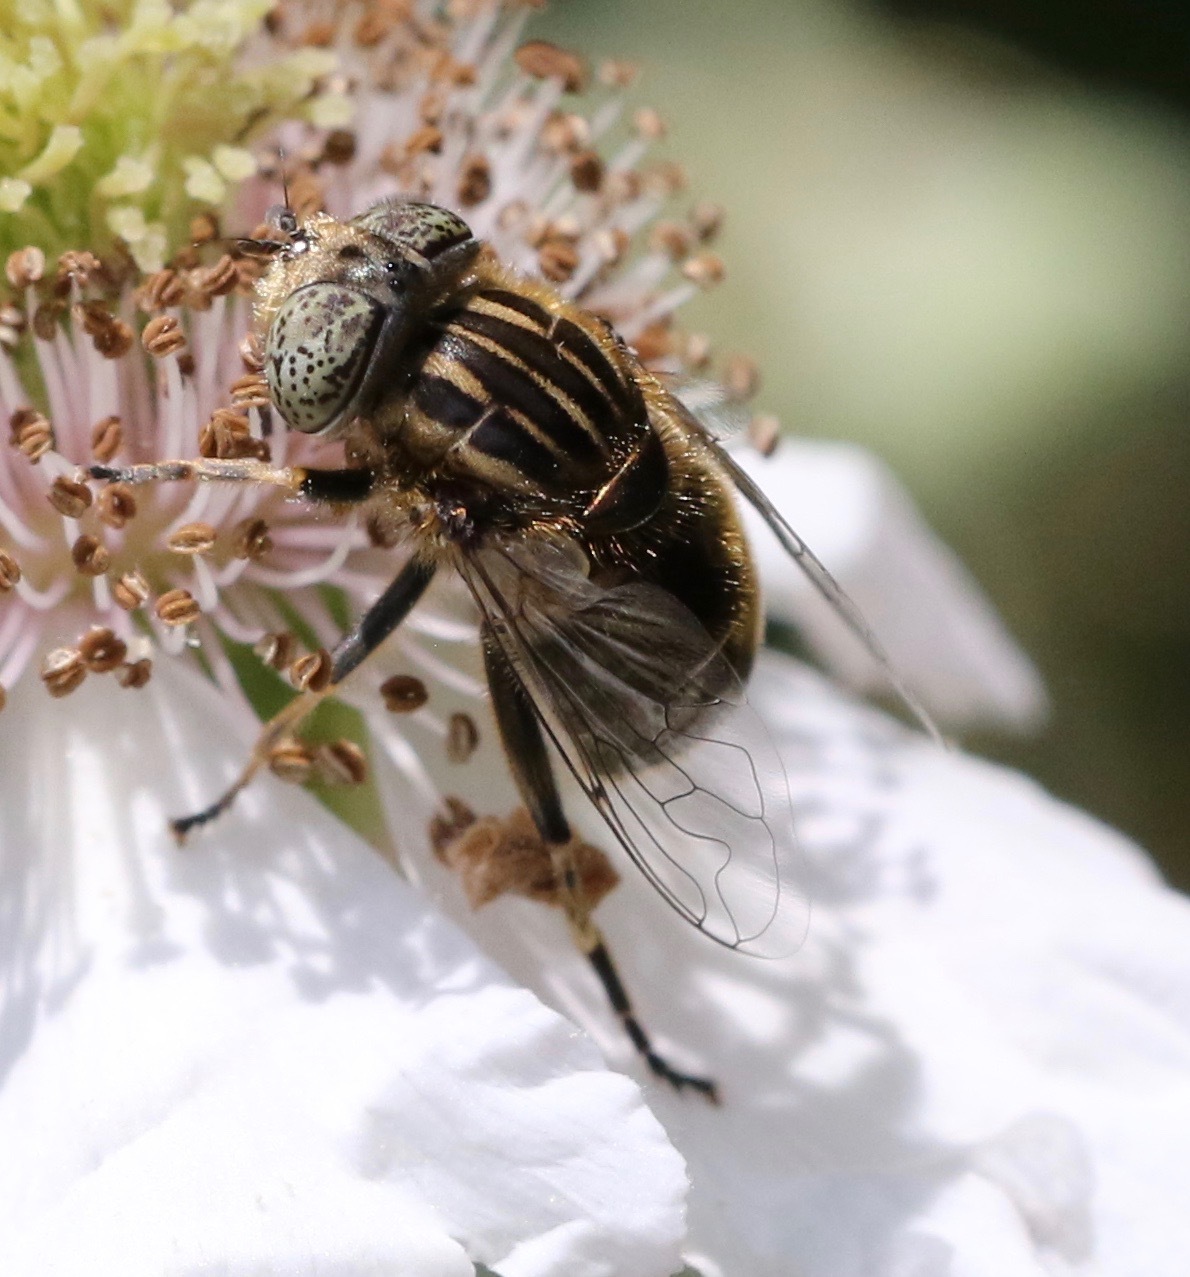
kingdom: Animalia
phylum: Arthropoda
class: Insecta
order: Diptera
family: Syrphidae
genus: Eristalinus
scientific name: Eristalinus sepulchralis
